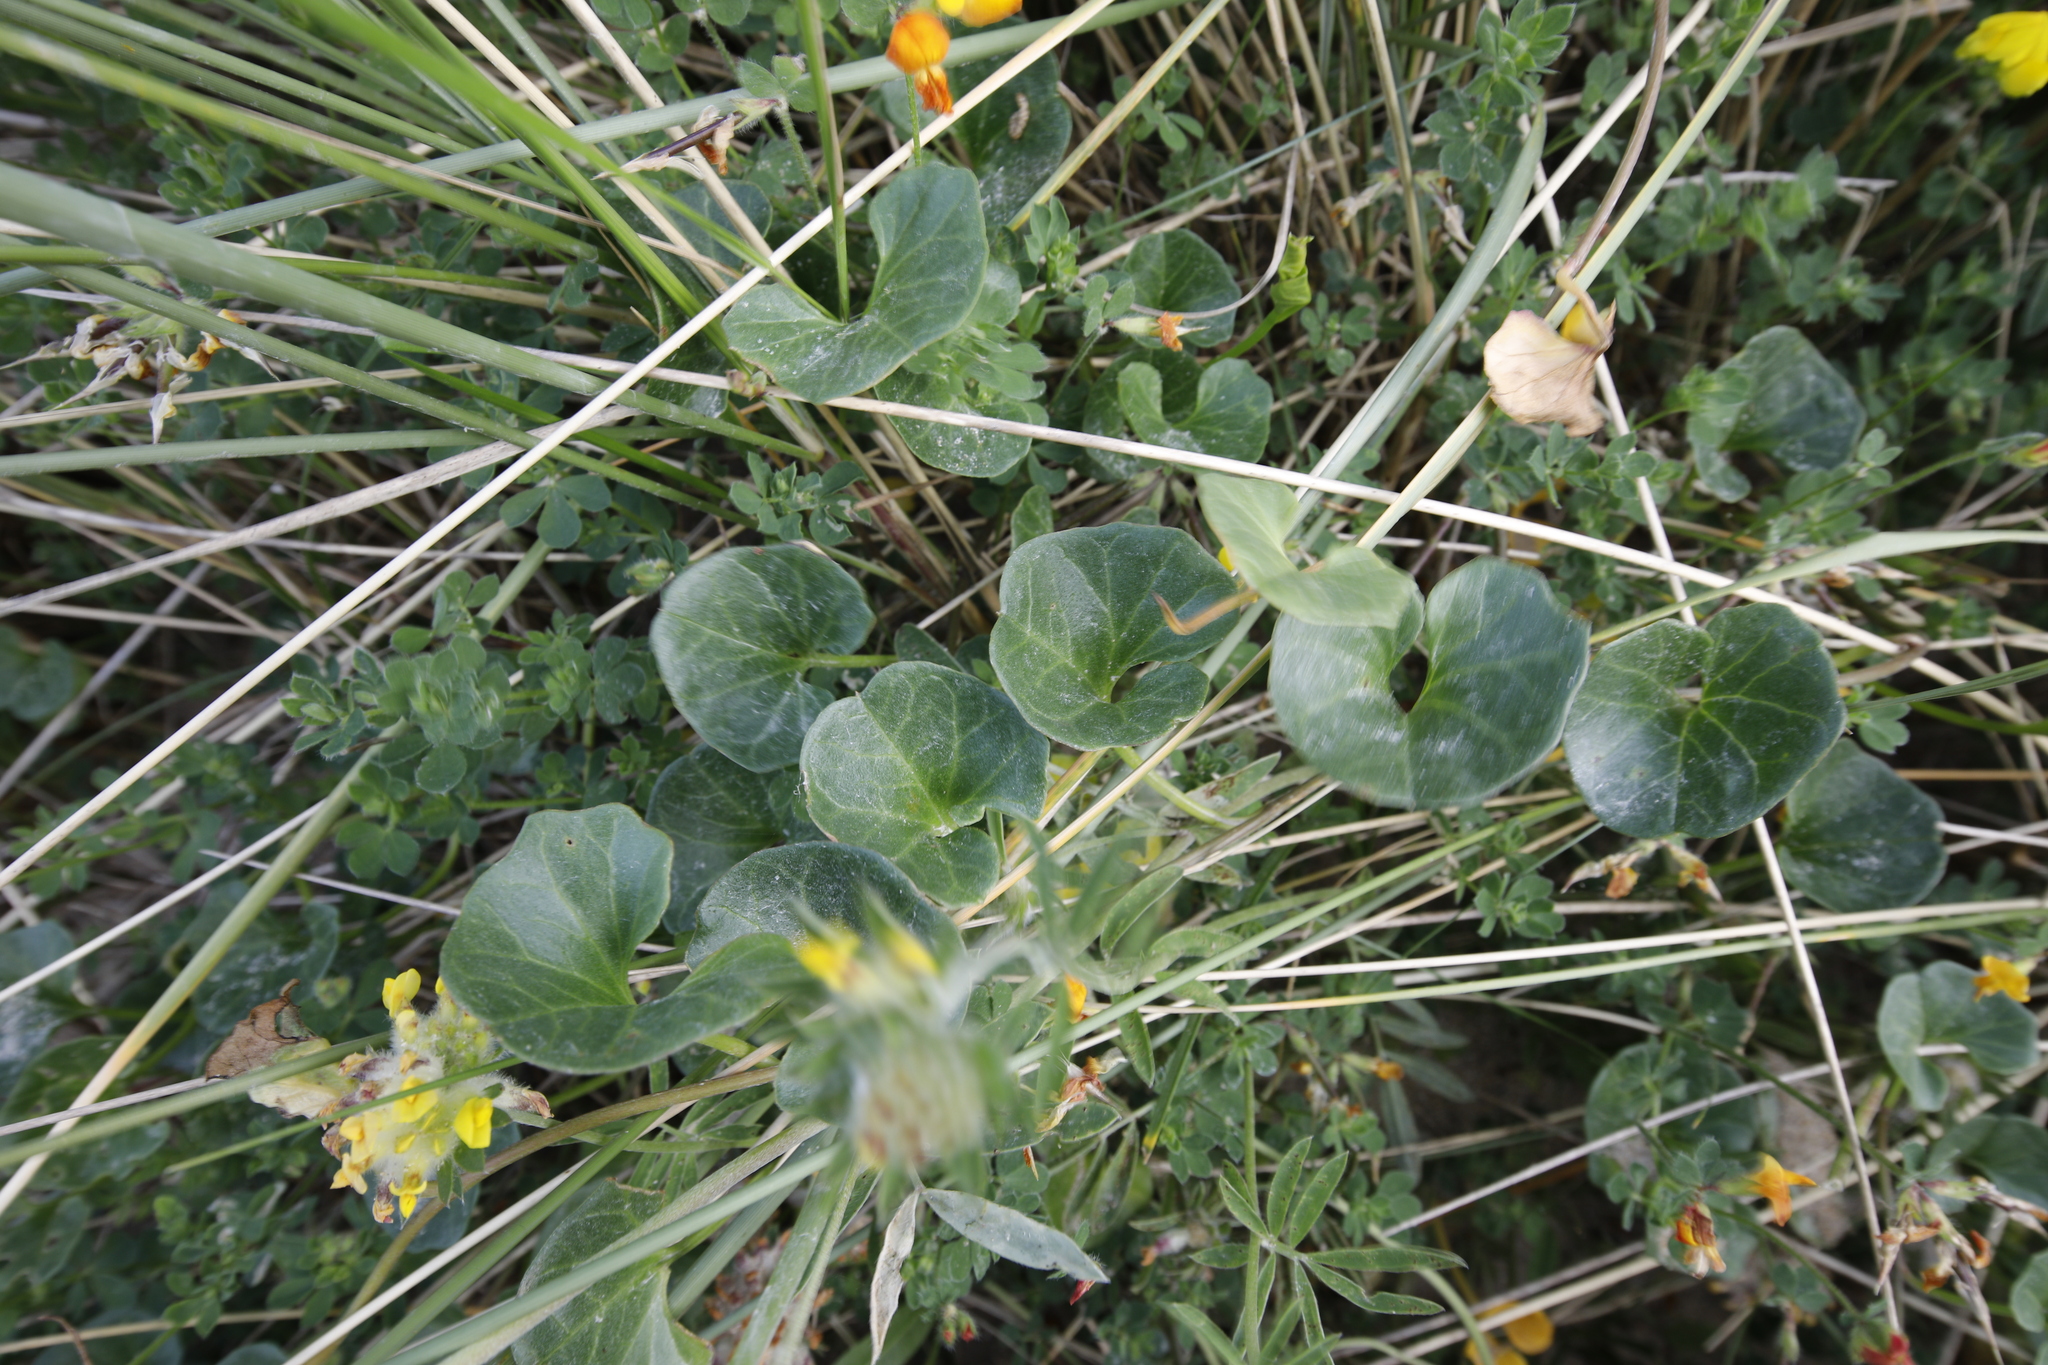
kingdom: Plantae
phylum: Tracheophyta
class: Magnoliopsida
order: Solanales
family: Convolvulaceae
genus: Calystegia
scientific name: Calystegia soldanella
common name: Sea bindweed
